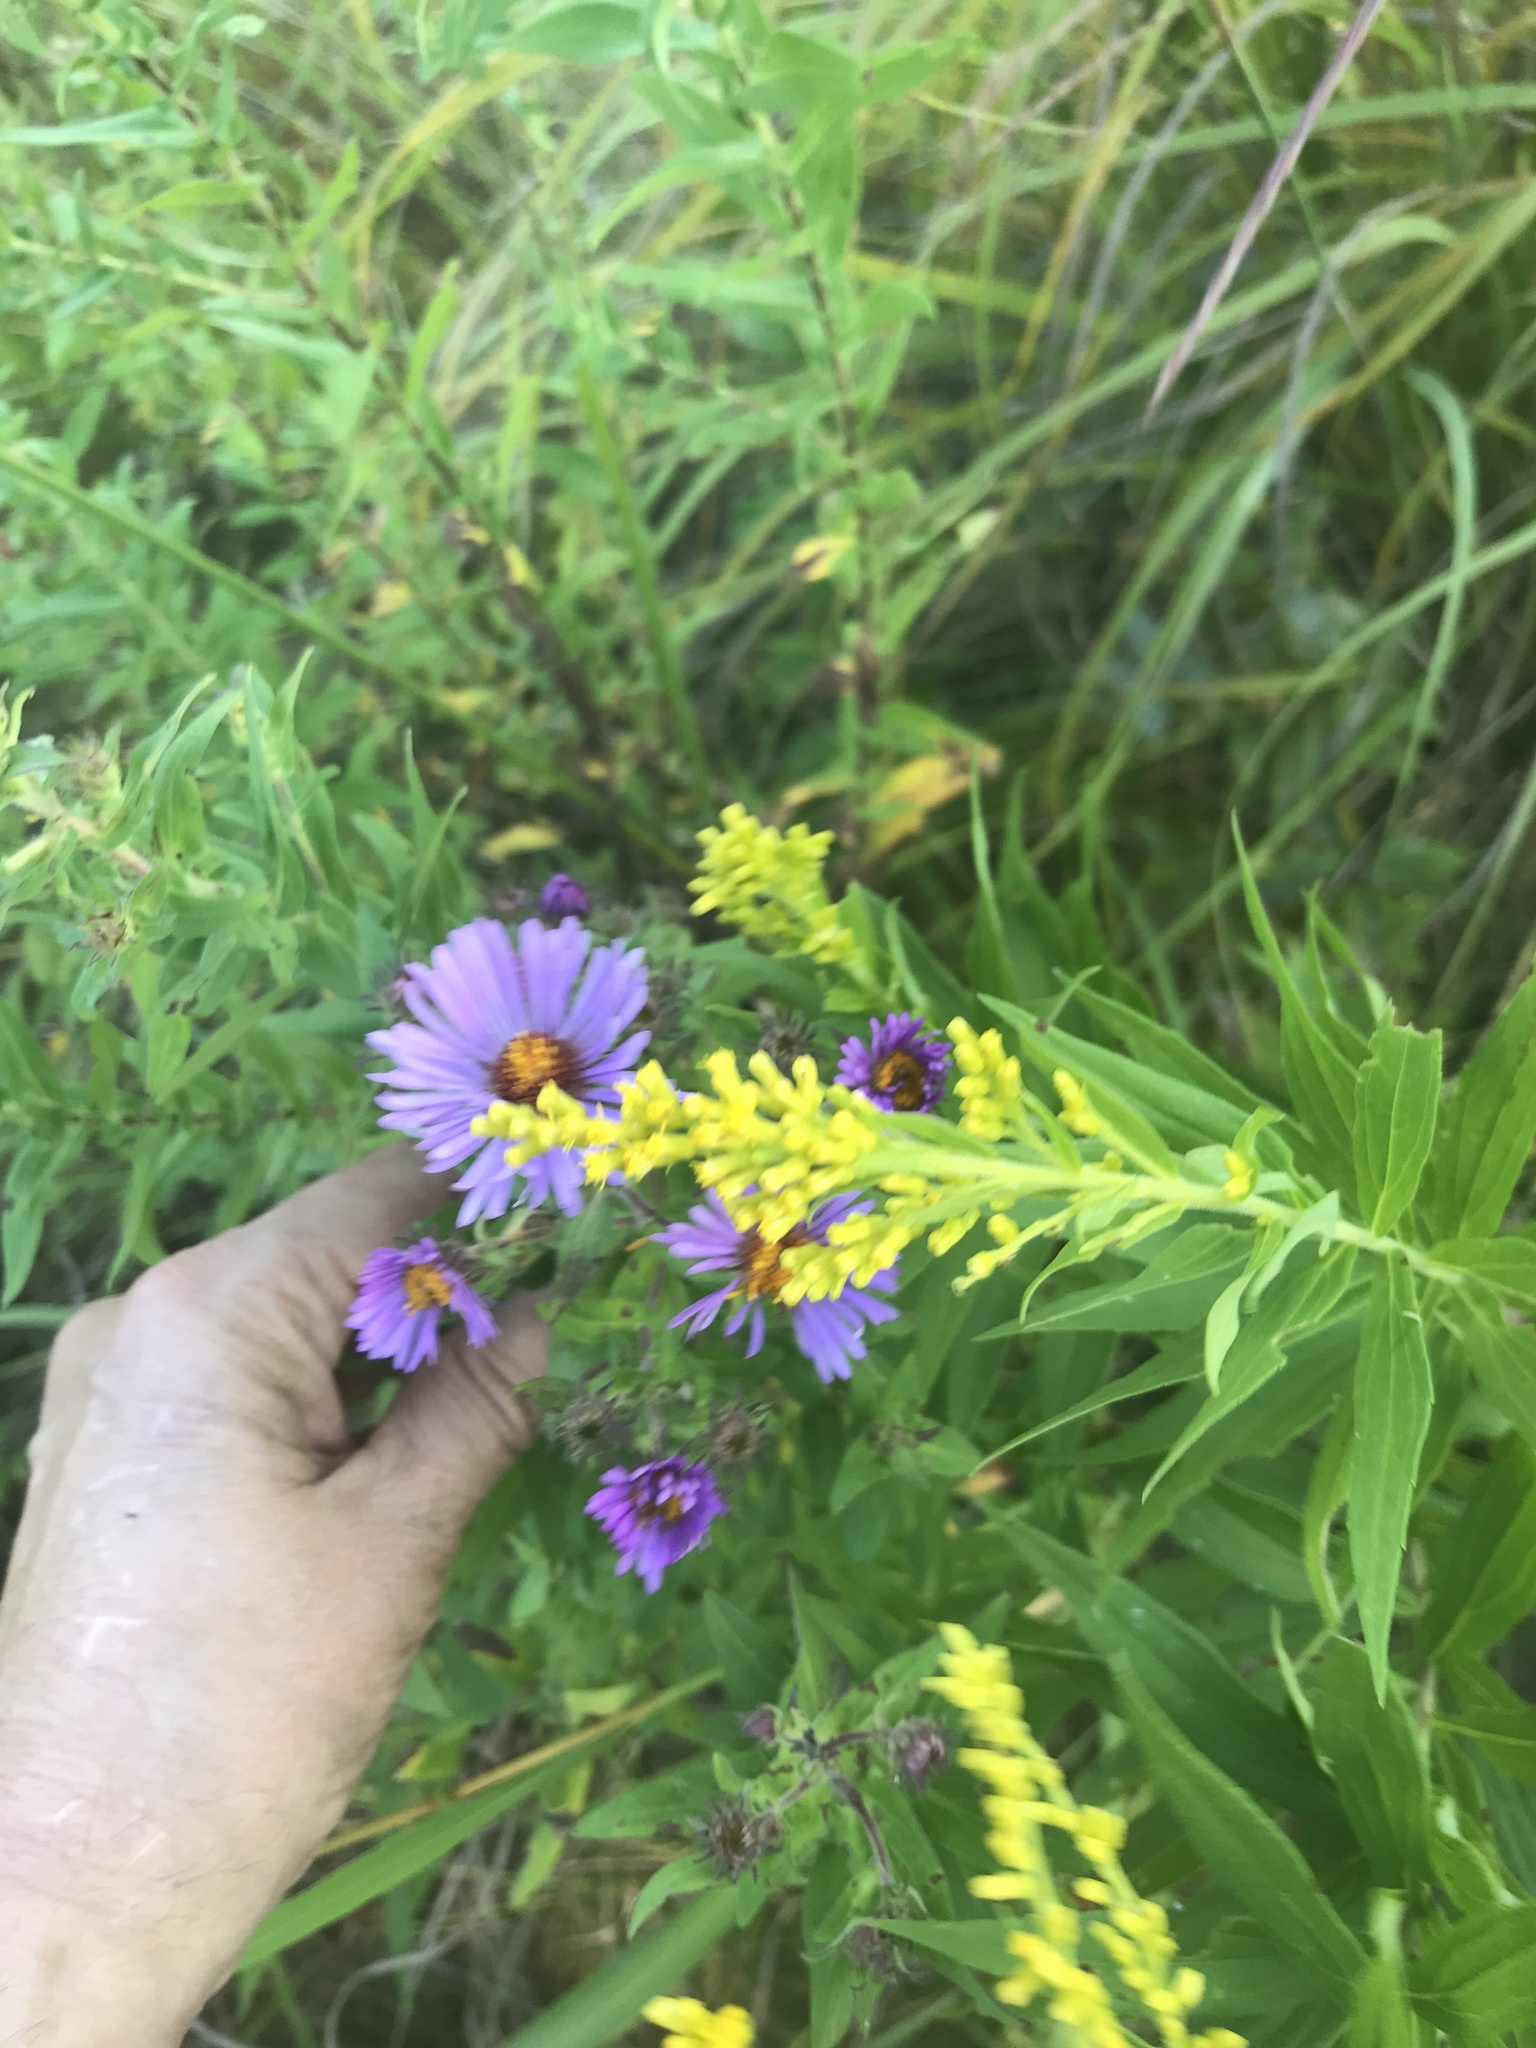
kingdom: Plantae
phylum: Tracheophyta
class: Magnoliopsida
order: Asterales
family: Asteraceae
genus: Symphyotrichum
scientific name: Symphyotrichum novae-angliae
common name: Michaelmas daisy
